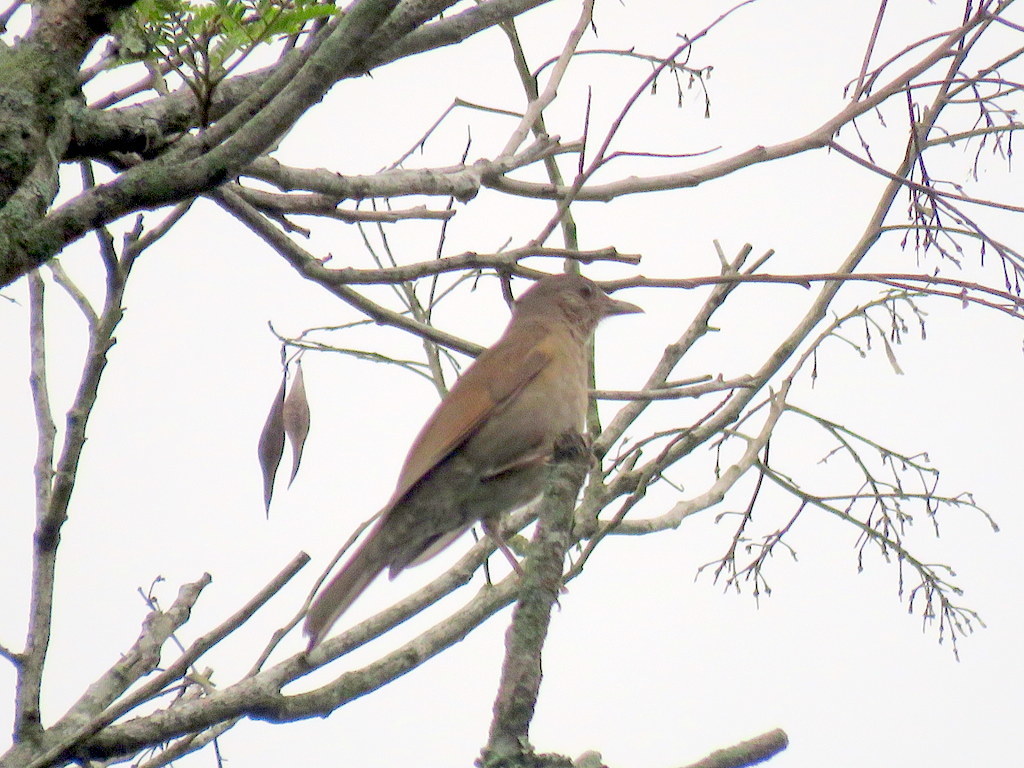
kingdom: Animalia
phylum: Chordata
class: Aves
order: Passeriformes
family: Turdidae
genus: Turdus
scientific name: Turdus leucomelas
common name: Pale-breasted thrush
